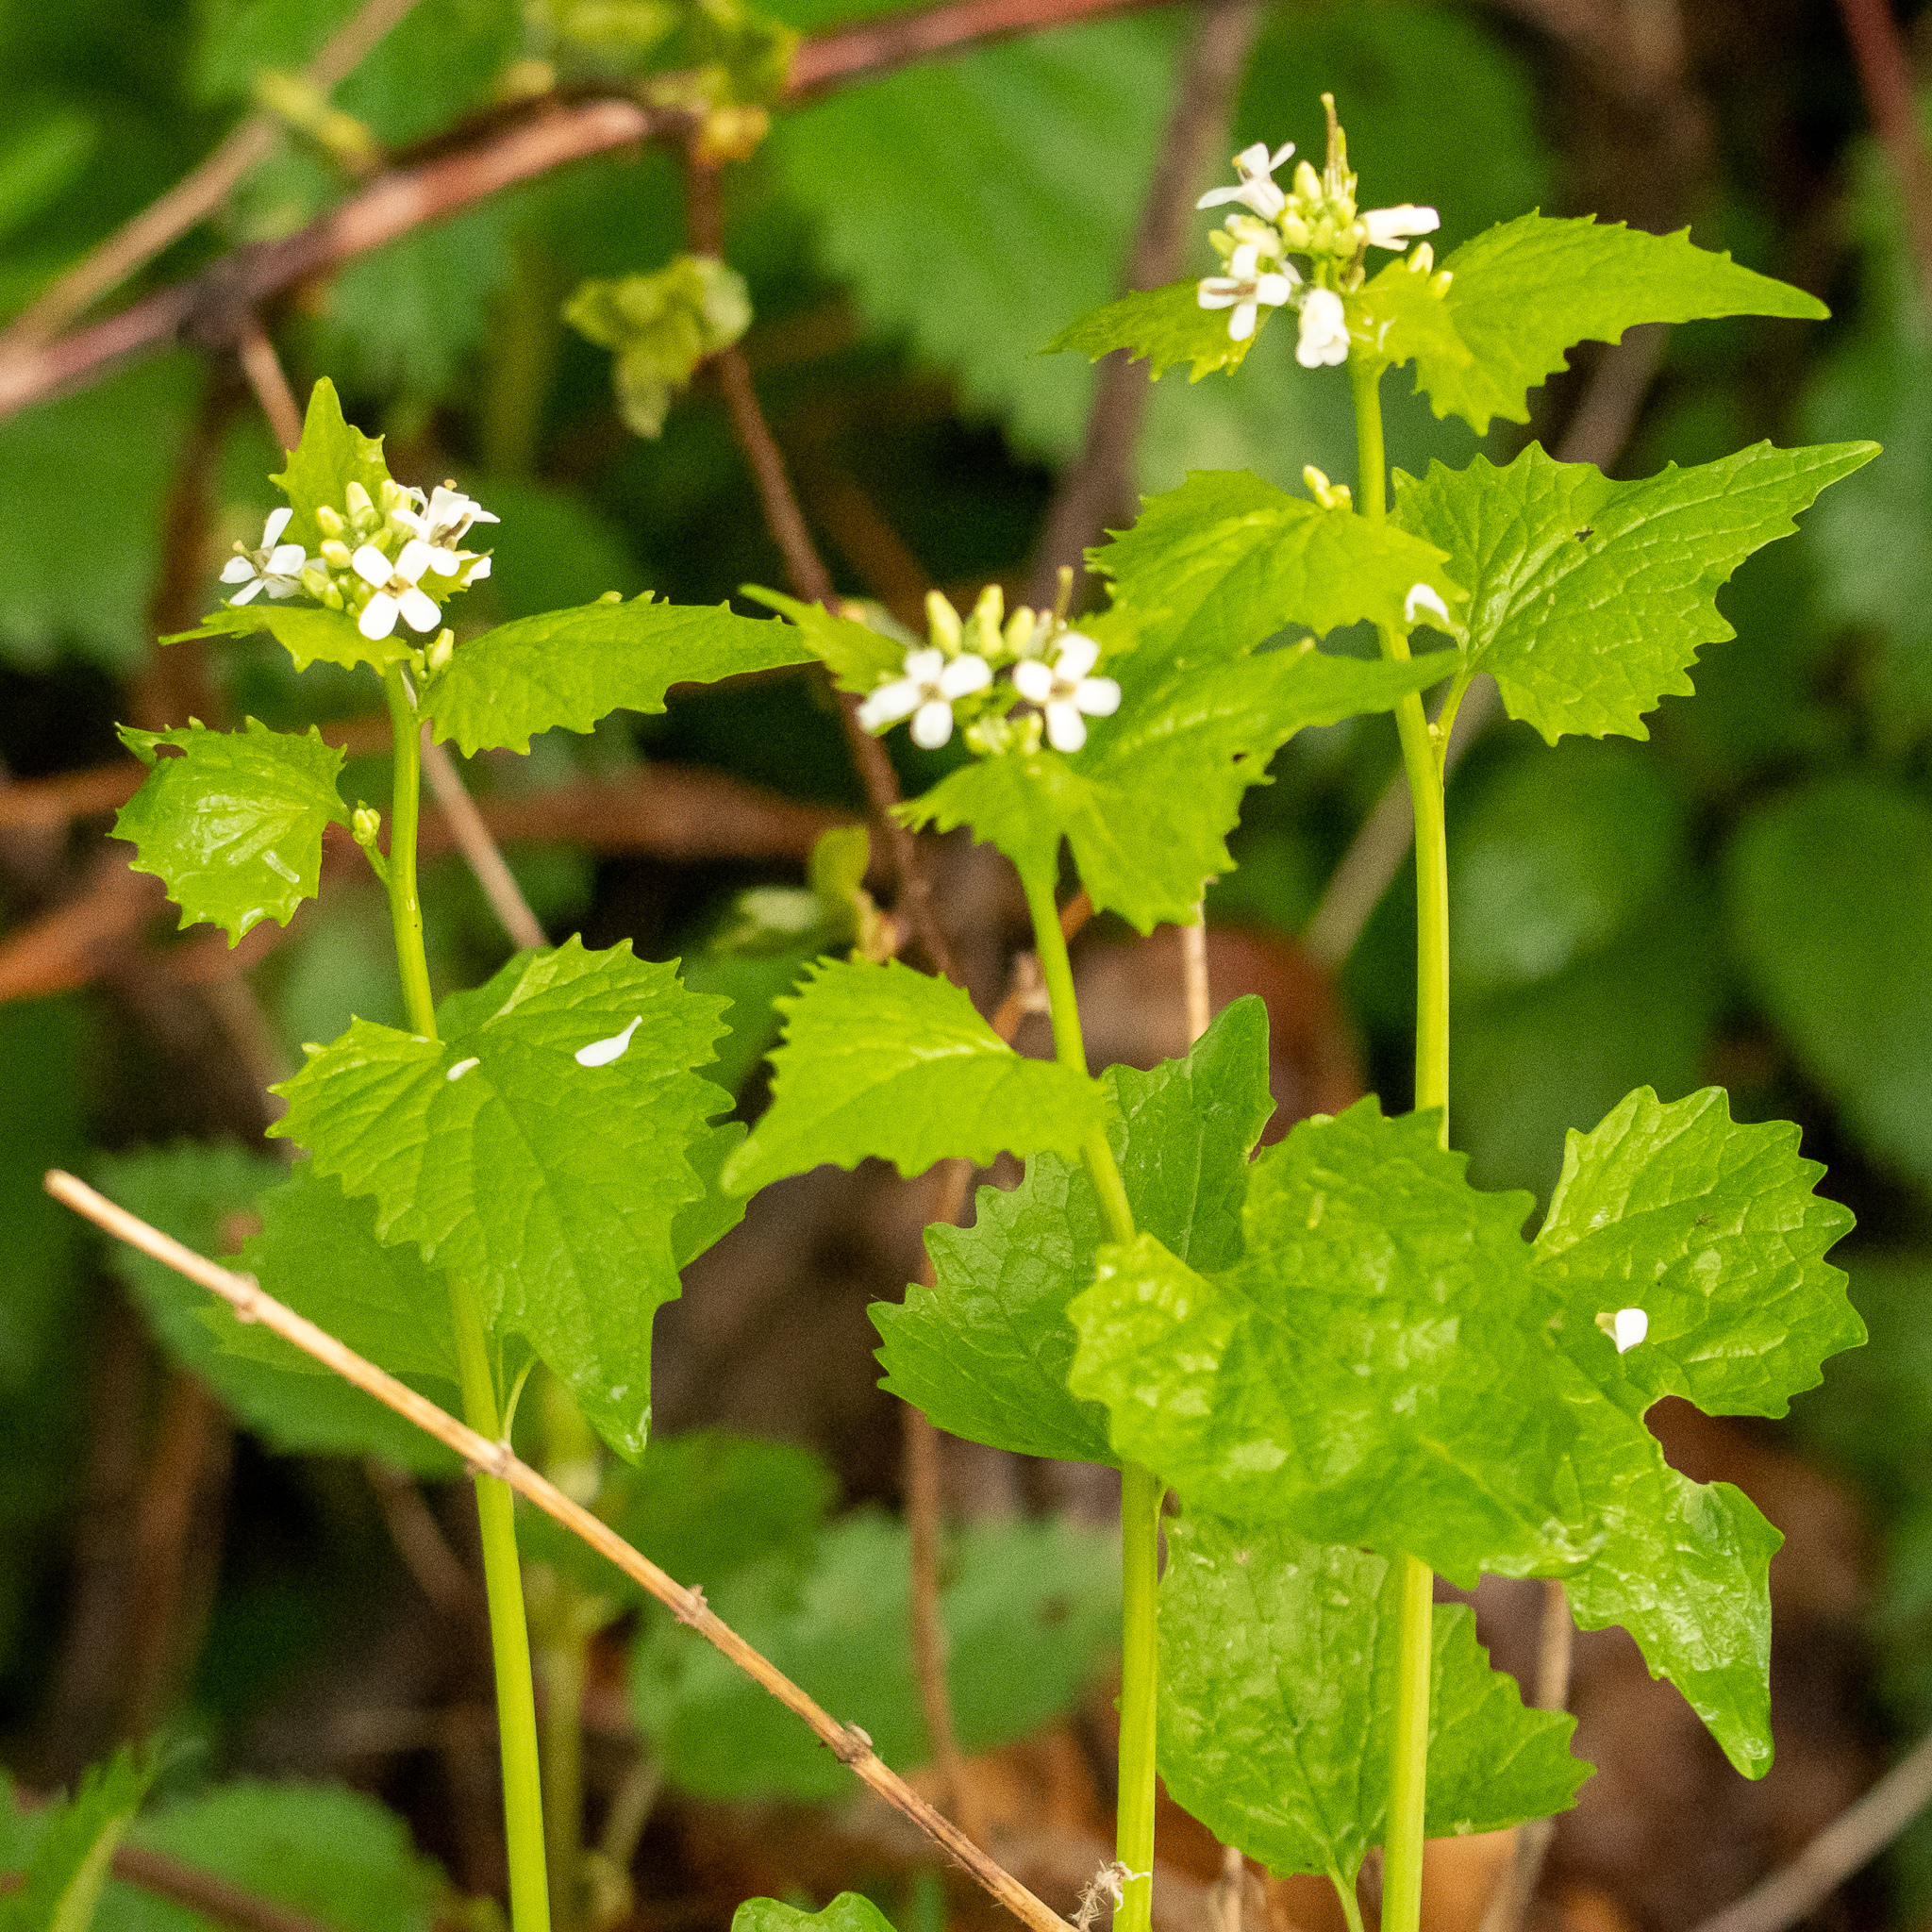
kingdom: Plantae
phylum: Tracheophyta
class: Magnoliopsida
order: Brassicales
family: Brassicaceae
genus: Alliaria
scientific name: Alliaria petiolata
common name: Garlic mustard
